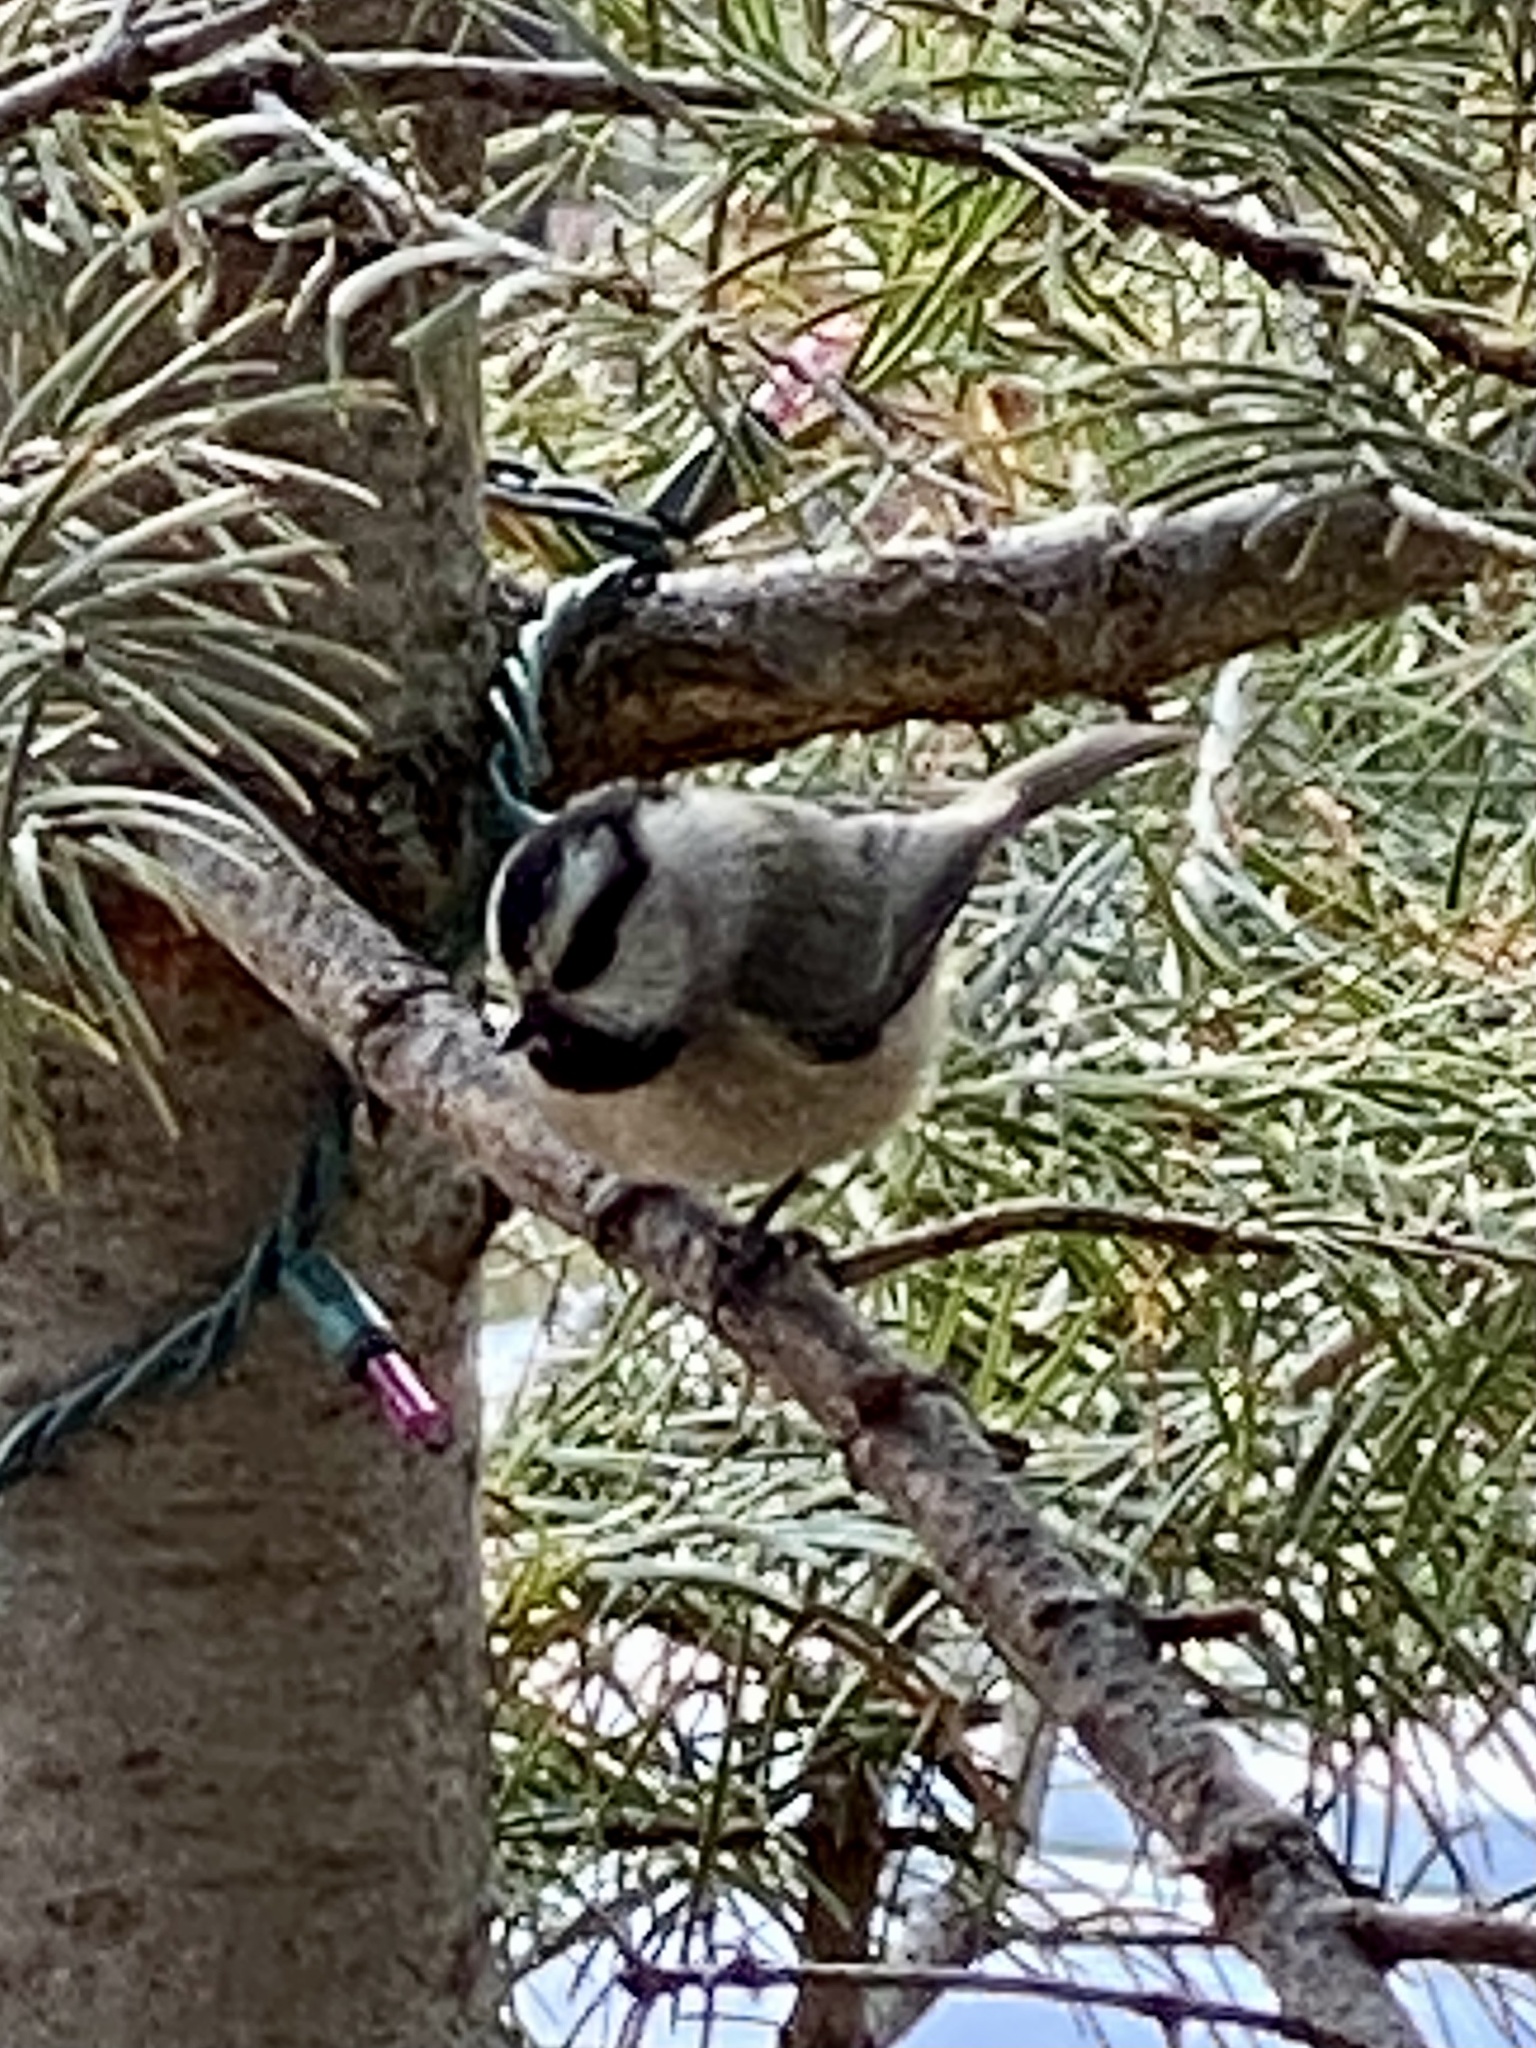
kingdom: Animalia
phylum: Chordata
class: Aves
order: Passeriformes
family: Paridae
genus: Poecile
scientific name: Poecile gambeli
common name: Mountain chickadee
